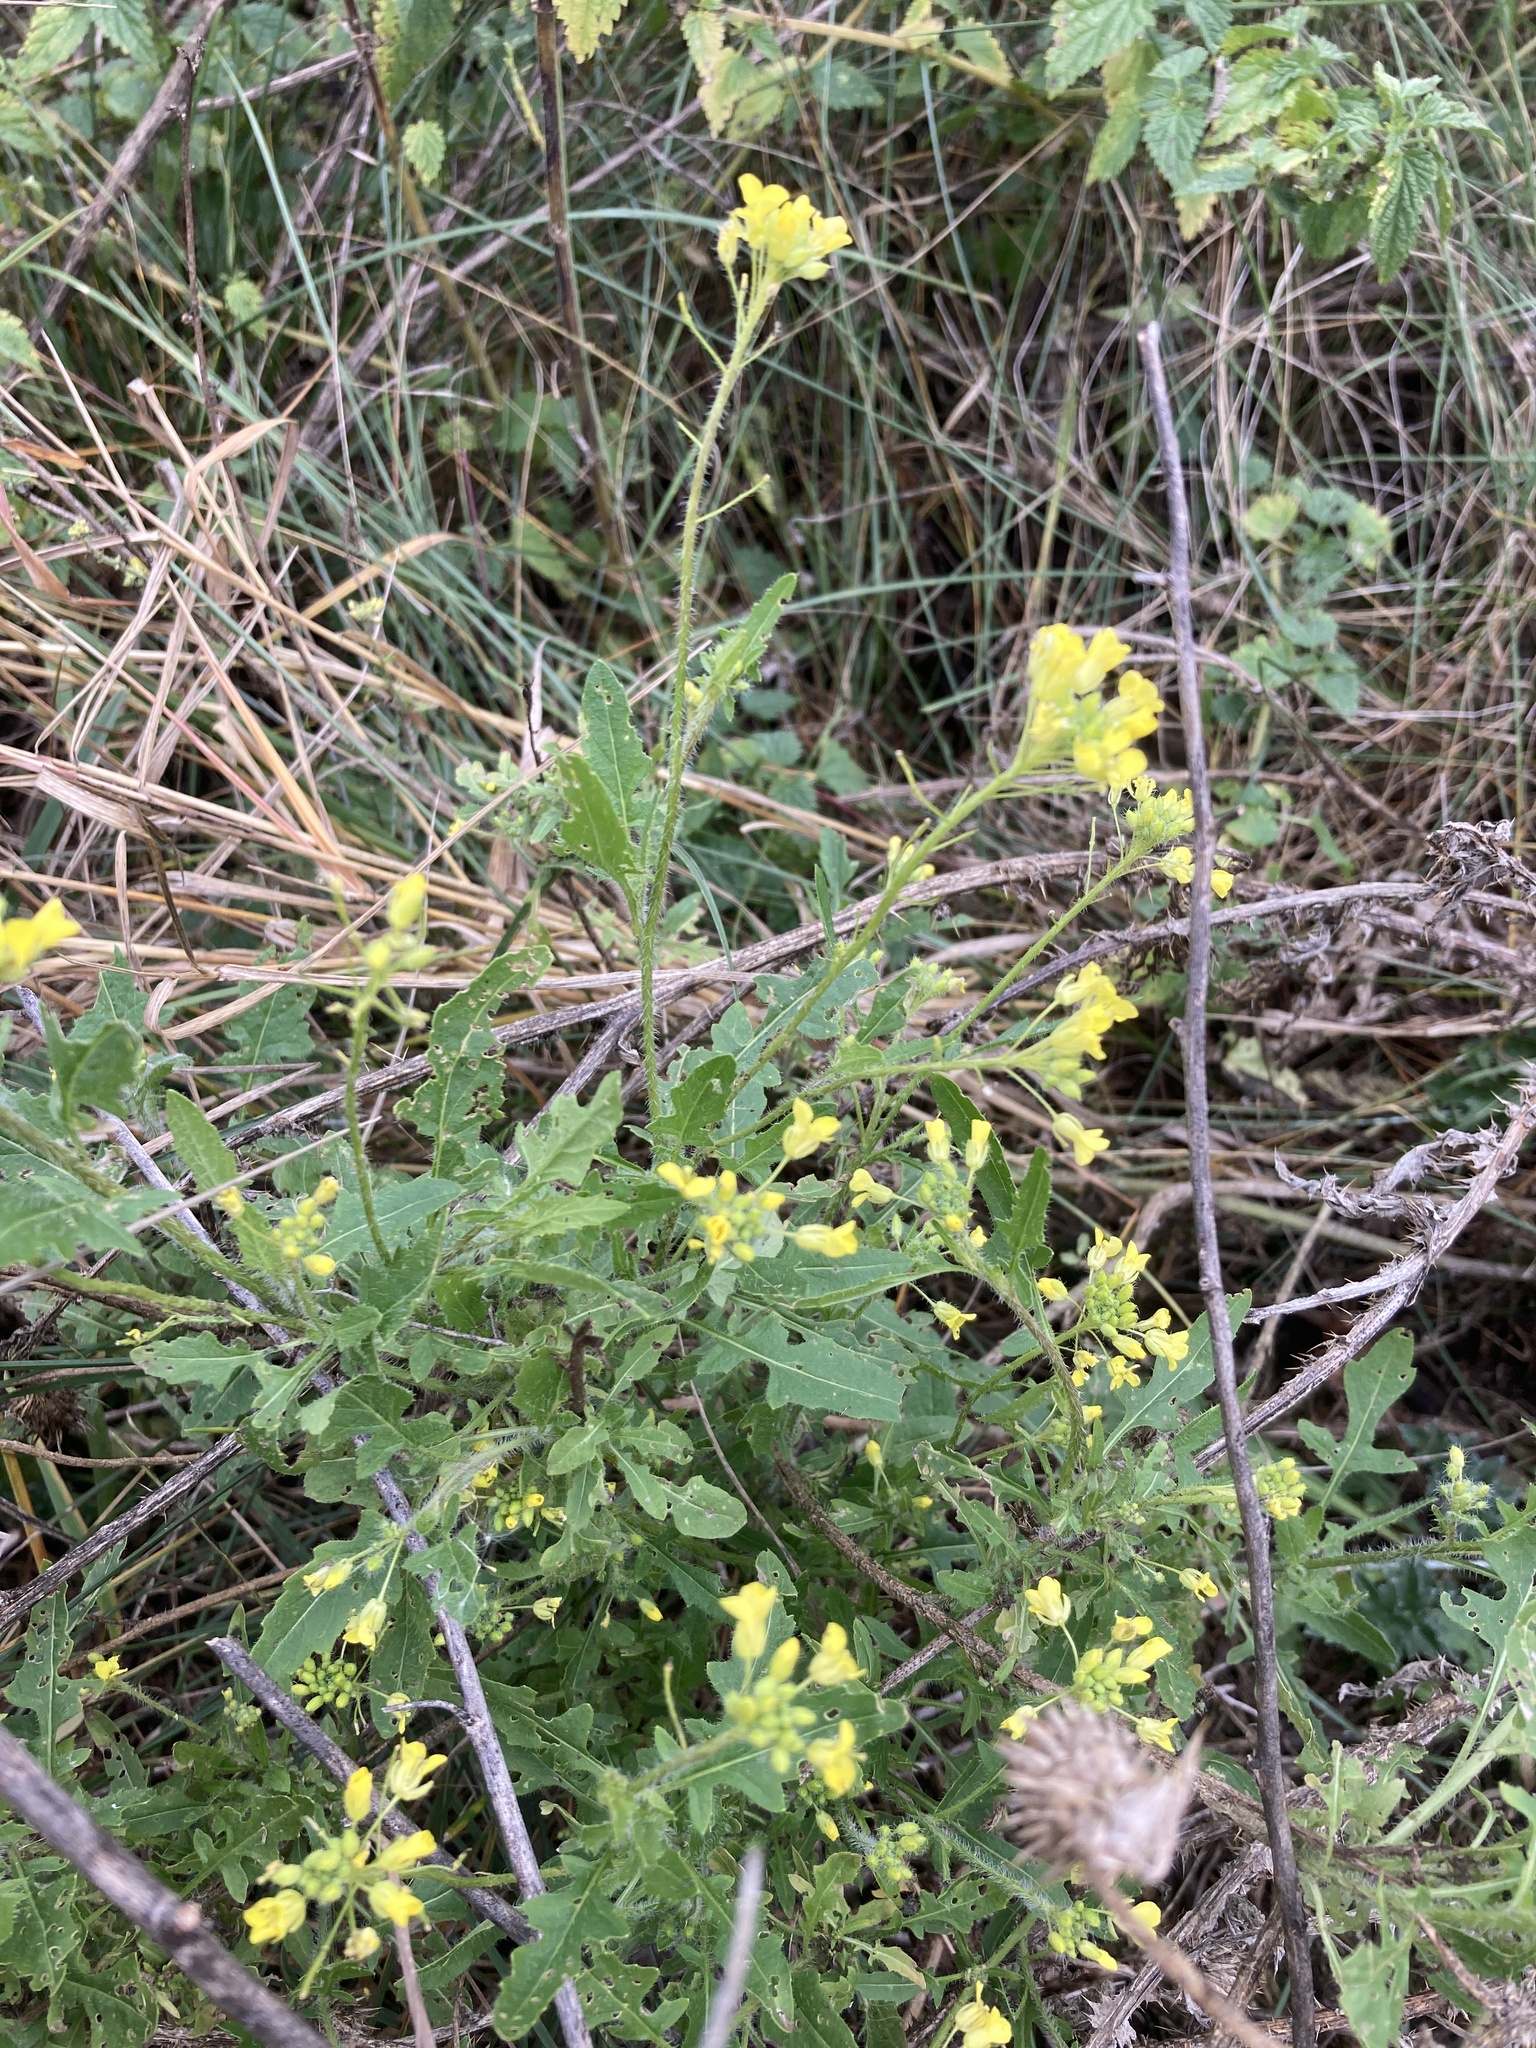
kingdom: Plantae
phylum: Tracheophyta
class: Magnoliopsida
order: Brassicales
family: Brassicaceae
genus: Sisymbrium
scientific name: Sisymbrium loeselii
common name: False london-rocket
